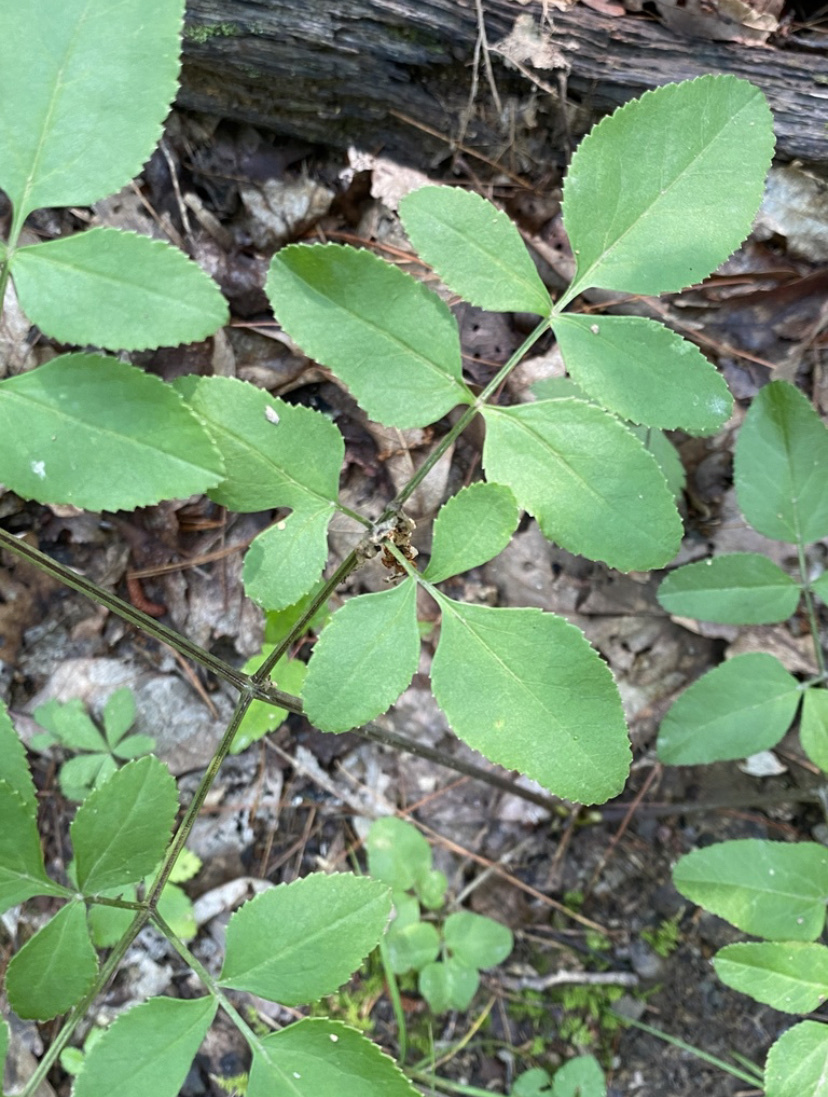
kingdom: Plantae
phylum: Tracheophyta
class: Magnoliopsida
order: Apiales
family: Apiaceae
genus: Angelica
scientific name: Angelica venenosa
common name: Hairy angelica
